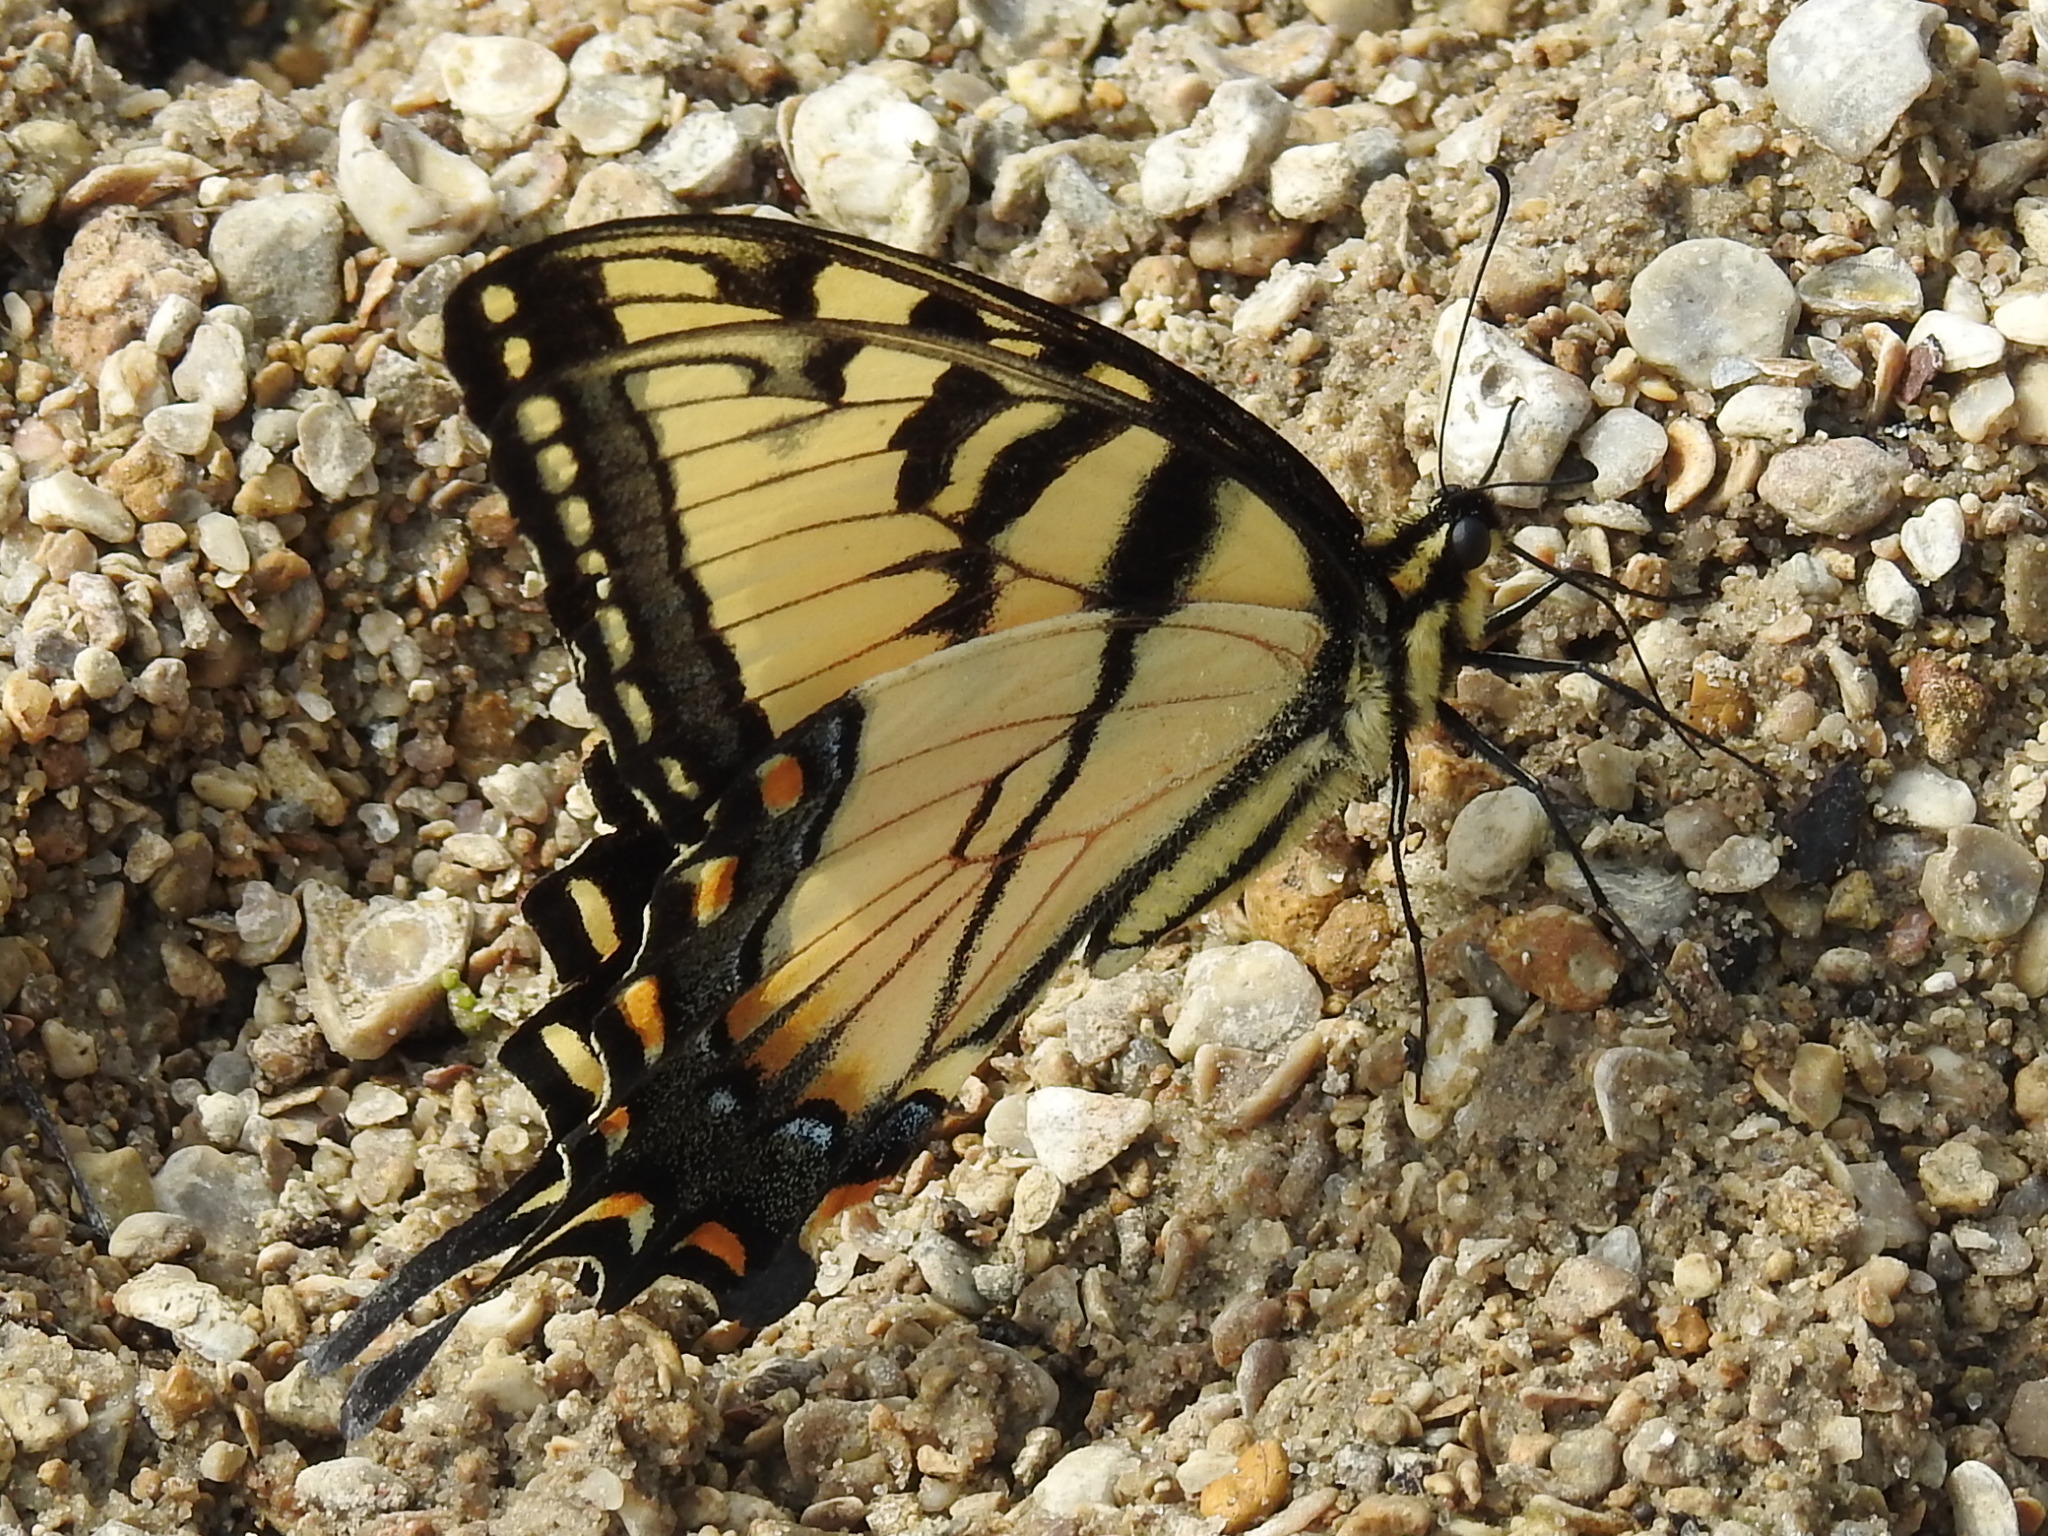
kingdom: Animalia
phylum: Arthropoda
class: Insecta
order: Lepidoptera
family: Papilionidae
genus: Papilio
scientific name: Papilio glaucus
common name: Tiger swallowtail
